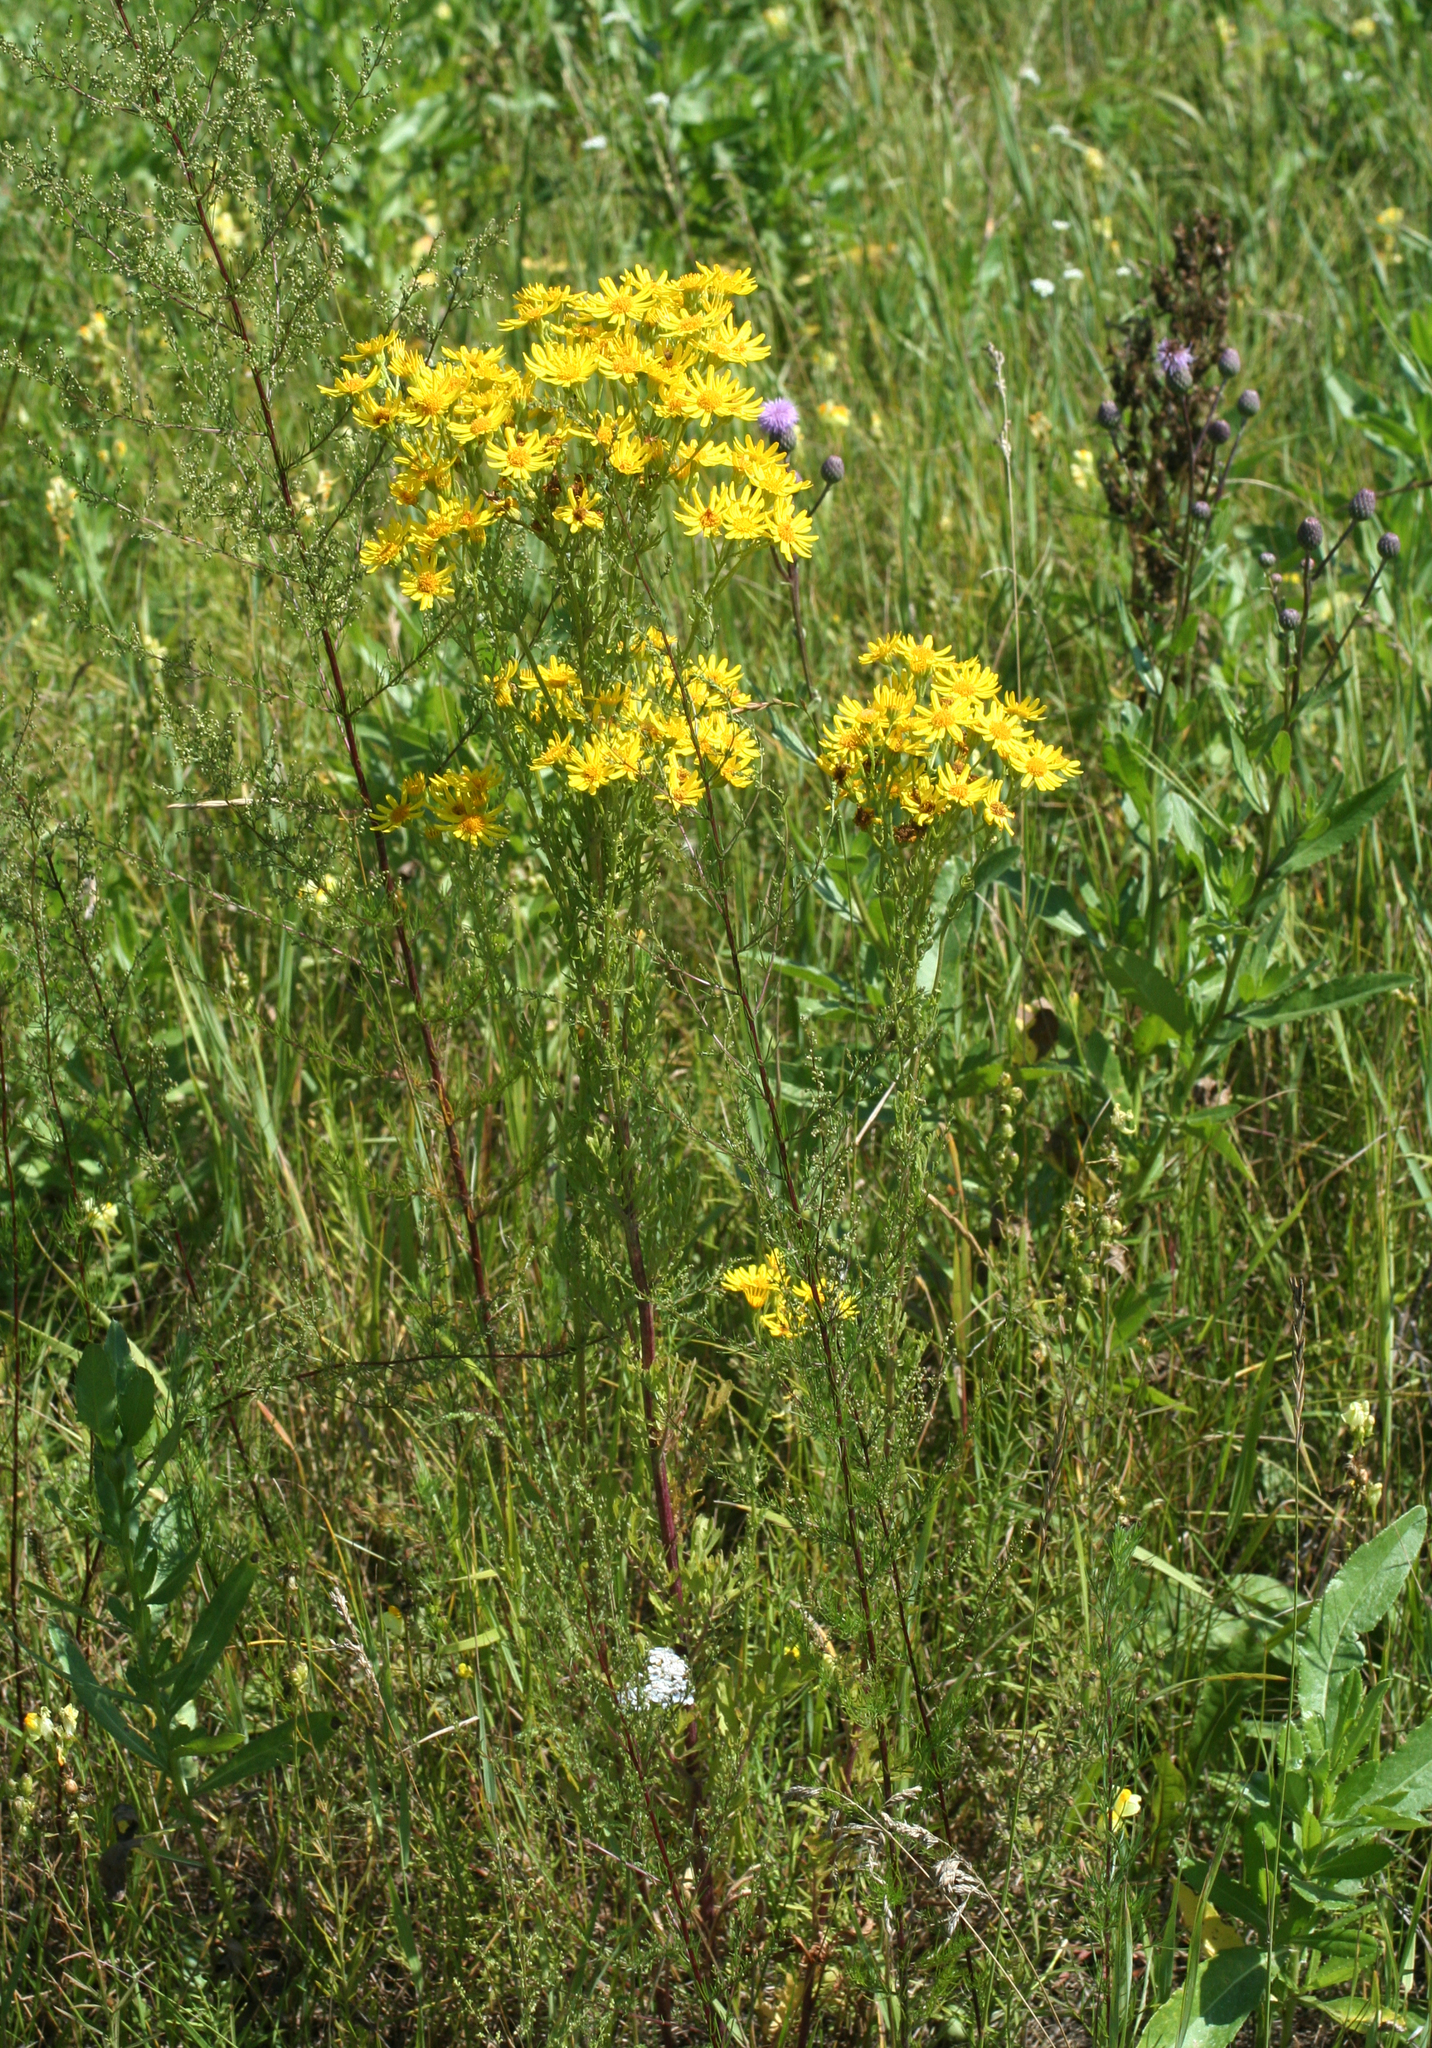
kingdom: Plantae
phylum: Tracheophyta
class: Magnoliopsida
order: Asterales
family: Asteraceae
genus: Jacobaea
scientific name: Jacobaea erucifolia
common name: Hoary ragwort
